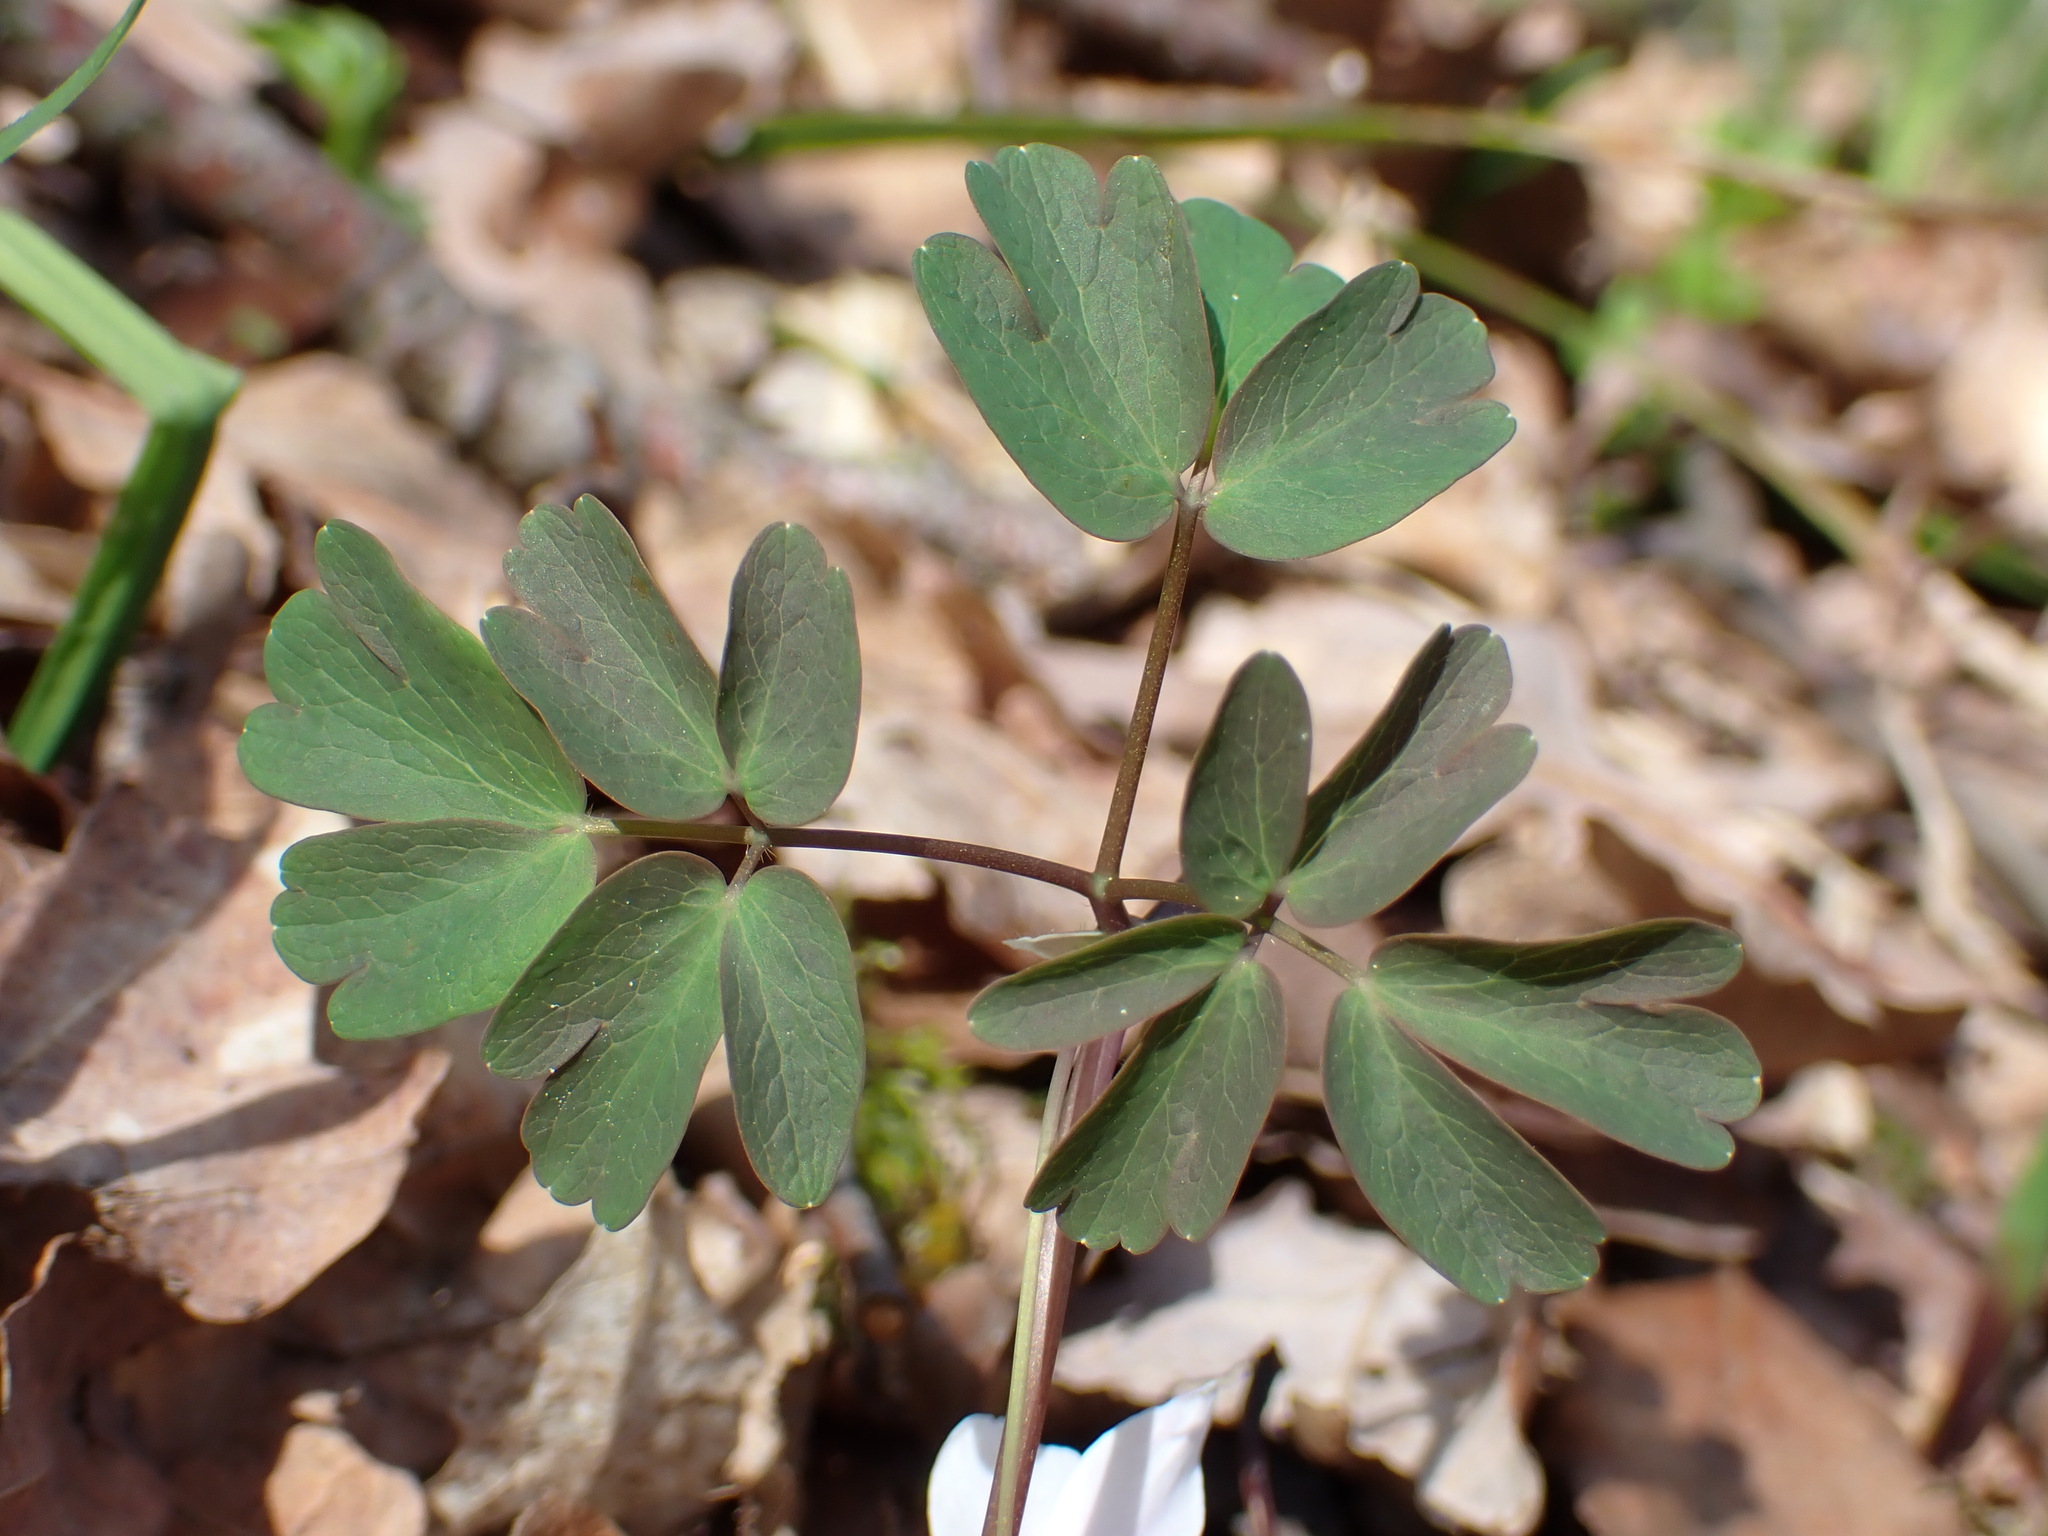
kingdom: Plantae
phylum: Tracheophyta
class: Magnoliopsida
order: Ranunculales
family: Ranunculaceae
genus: Isopyrum
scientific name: Isopyrum thalictroides
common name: Isopyrum
